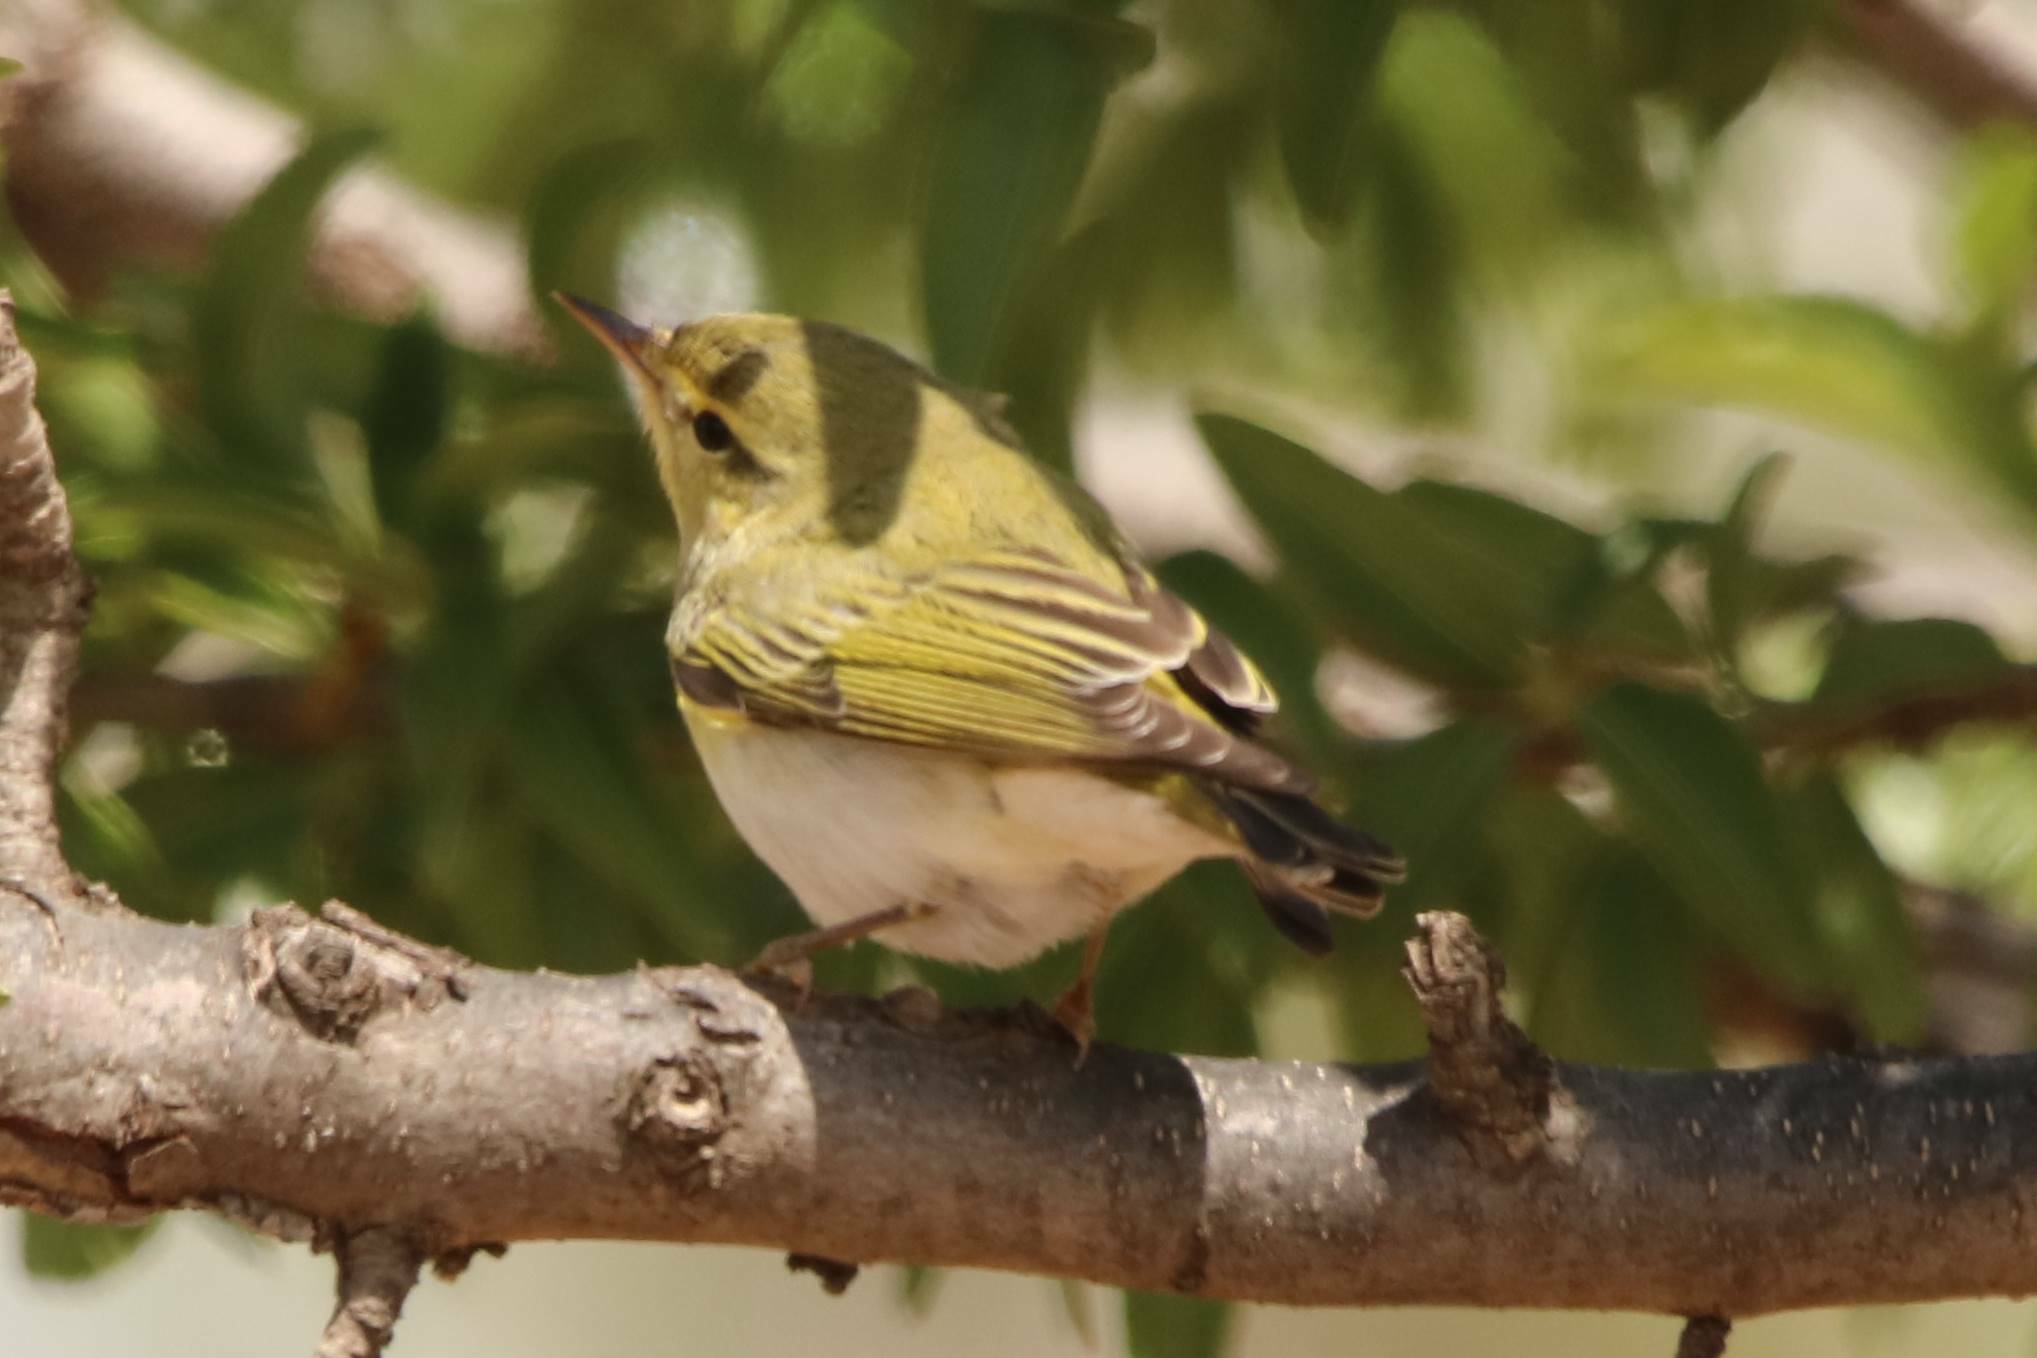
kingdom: Animalia
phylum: Chordata
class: Aves
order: Passeriformes
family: Phylloscopidae
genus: Phylloscopus
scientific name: Phylloscopus sibillatrix
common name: Wood warbler
